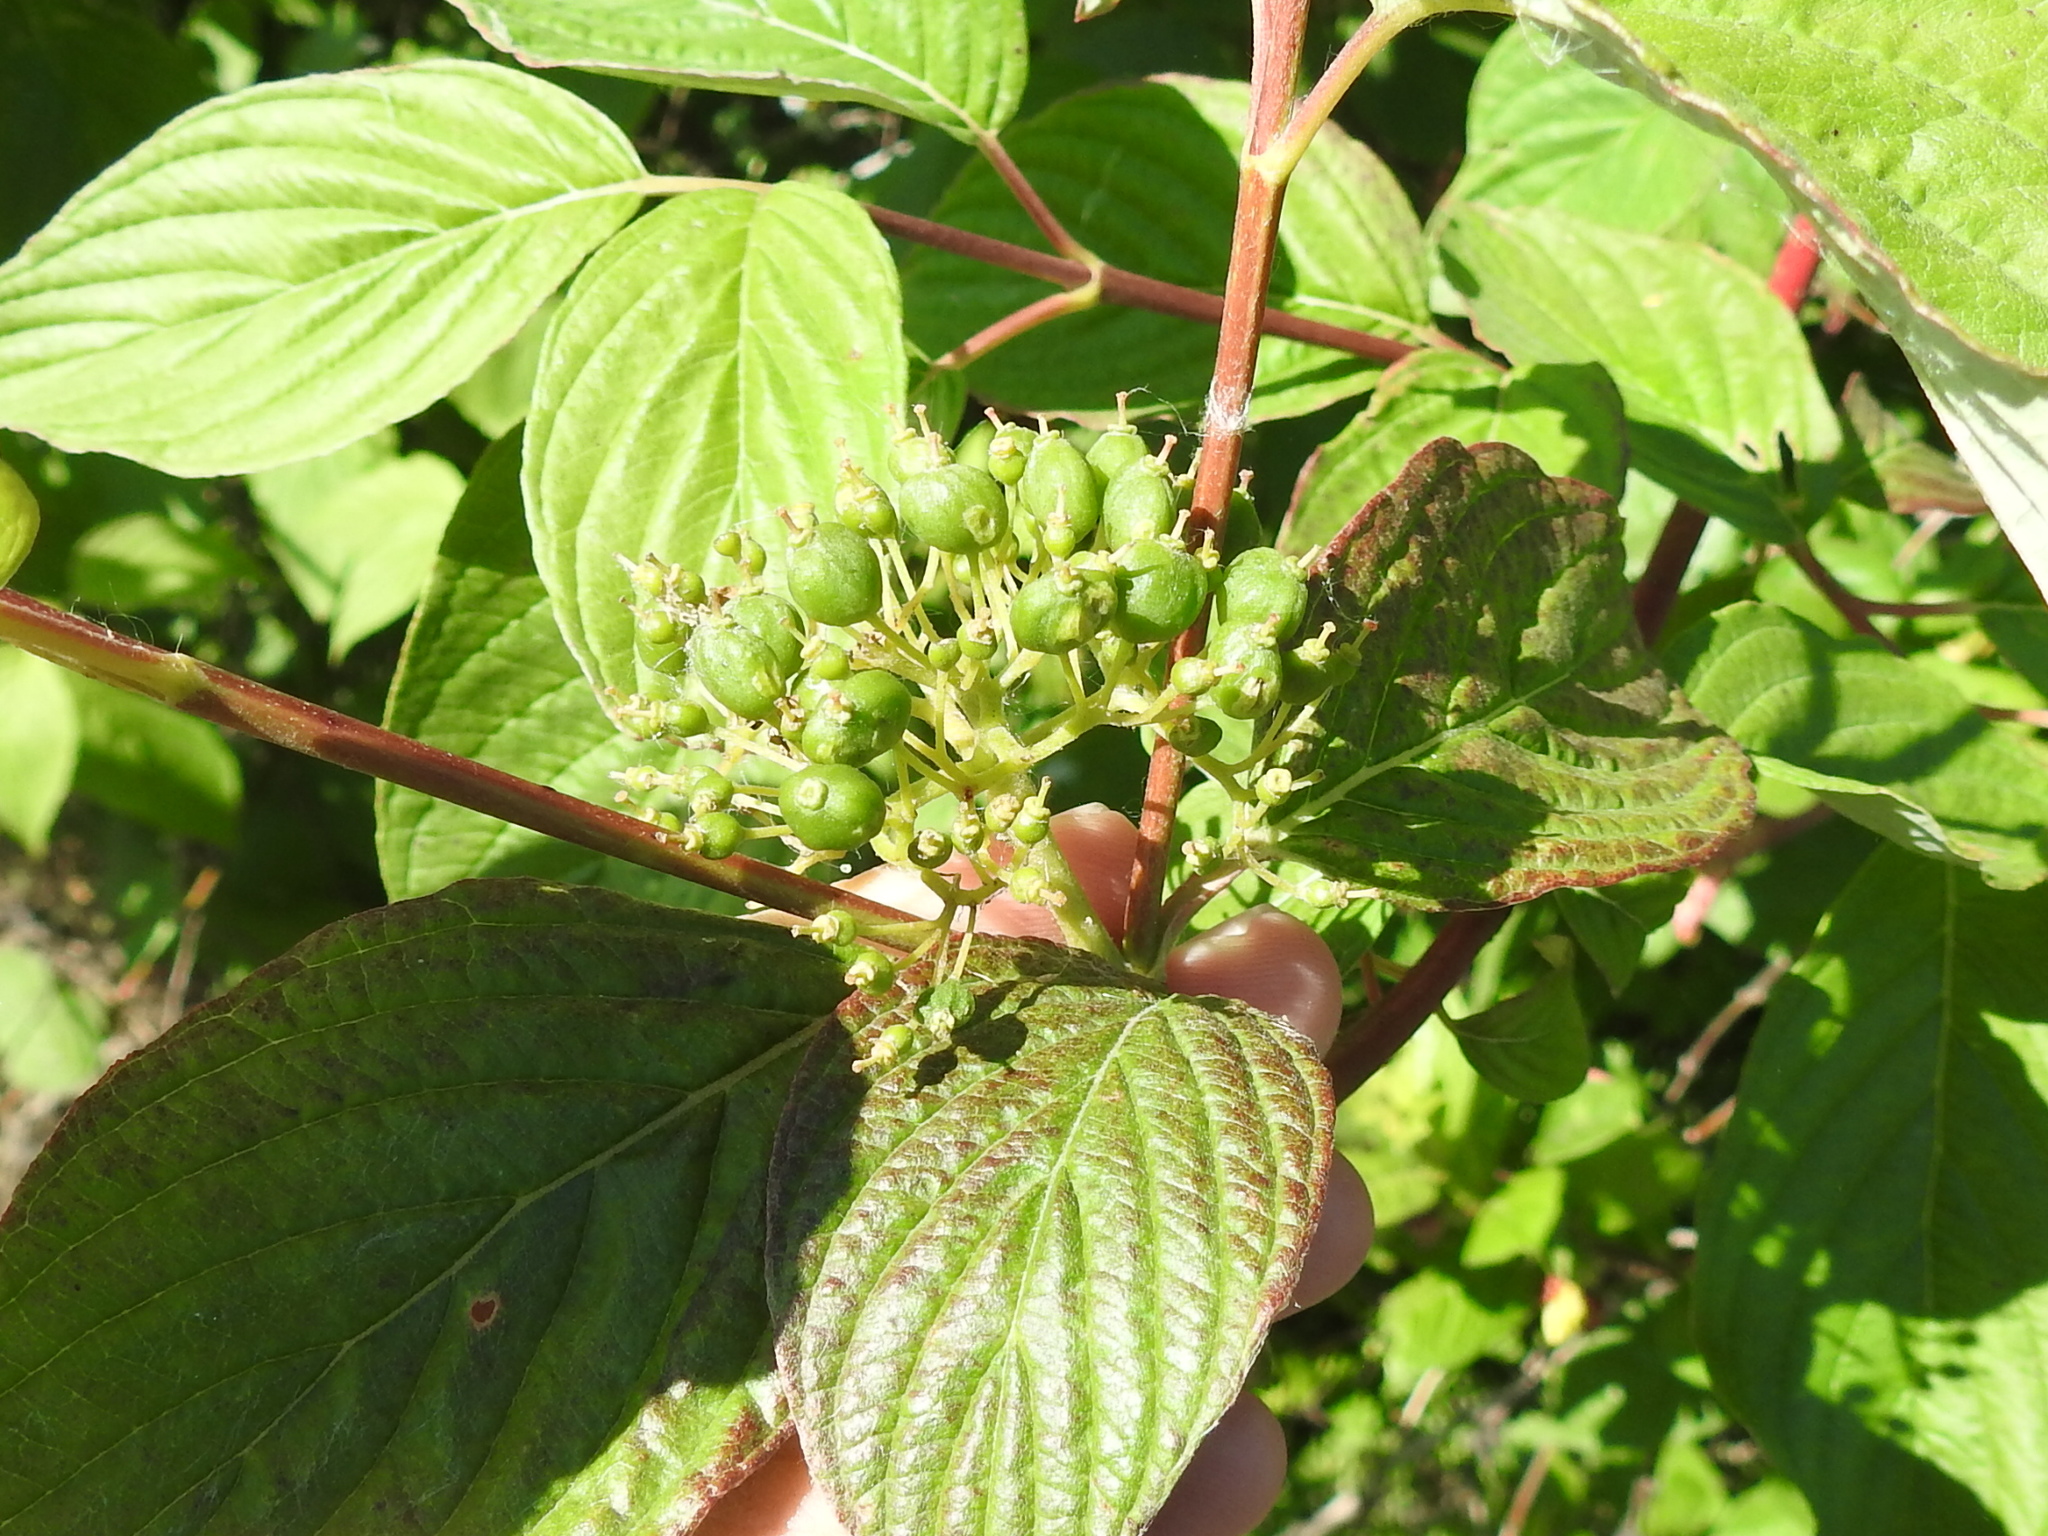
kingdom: Plantae
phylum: Tracheophyta
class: Magnoliopsida
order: Cornales
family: Cornaceae
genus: Cornus
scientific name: Cornus sericea
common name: Red-osier dogwood
